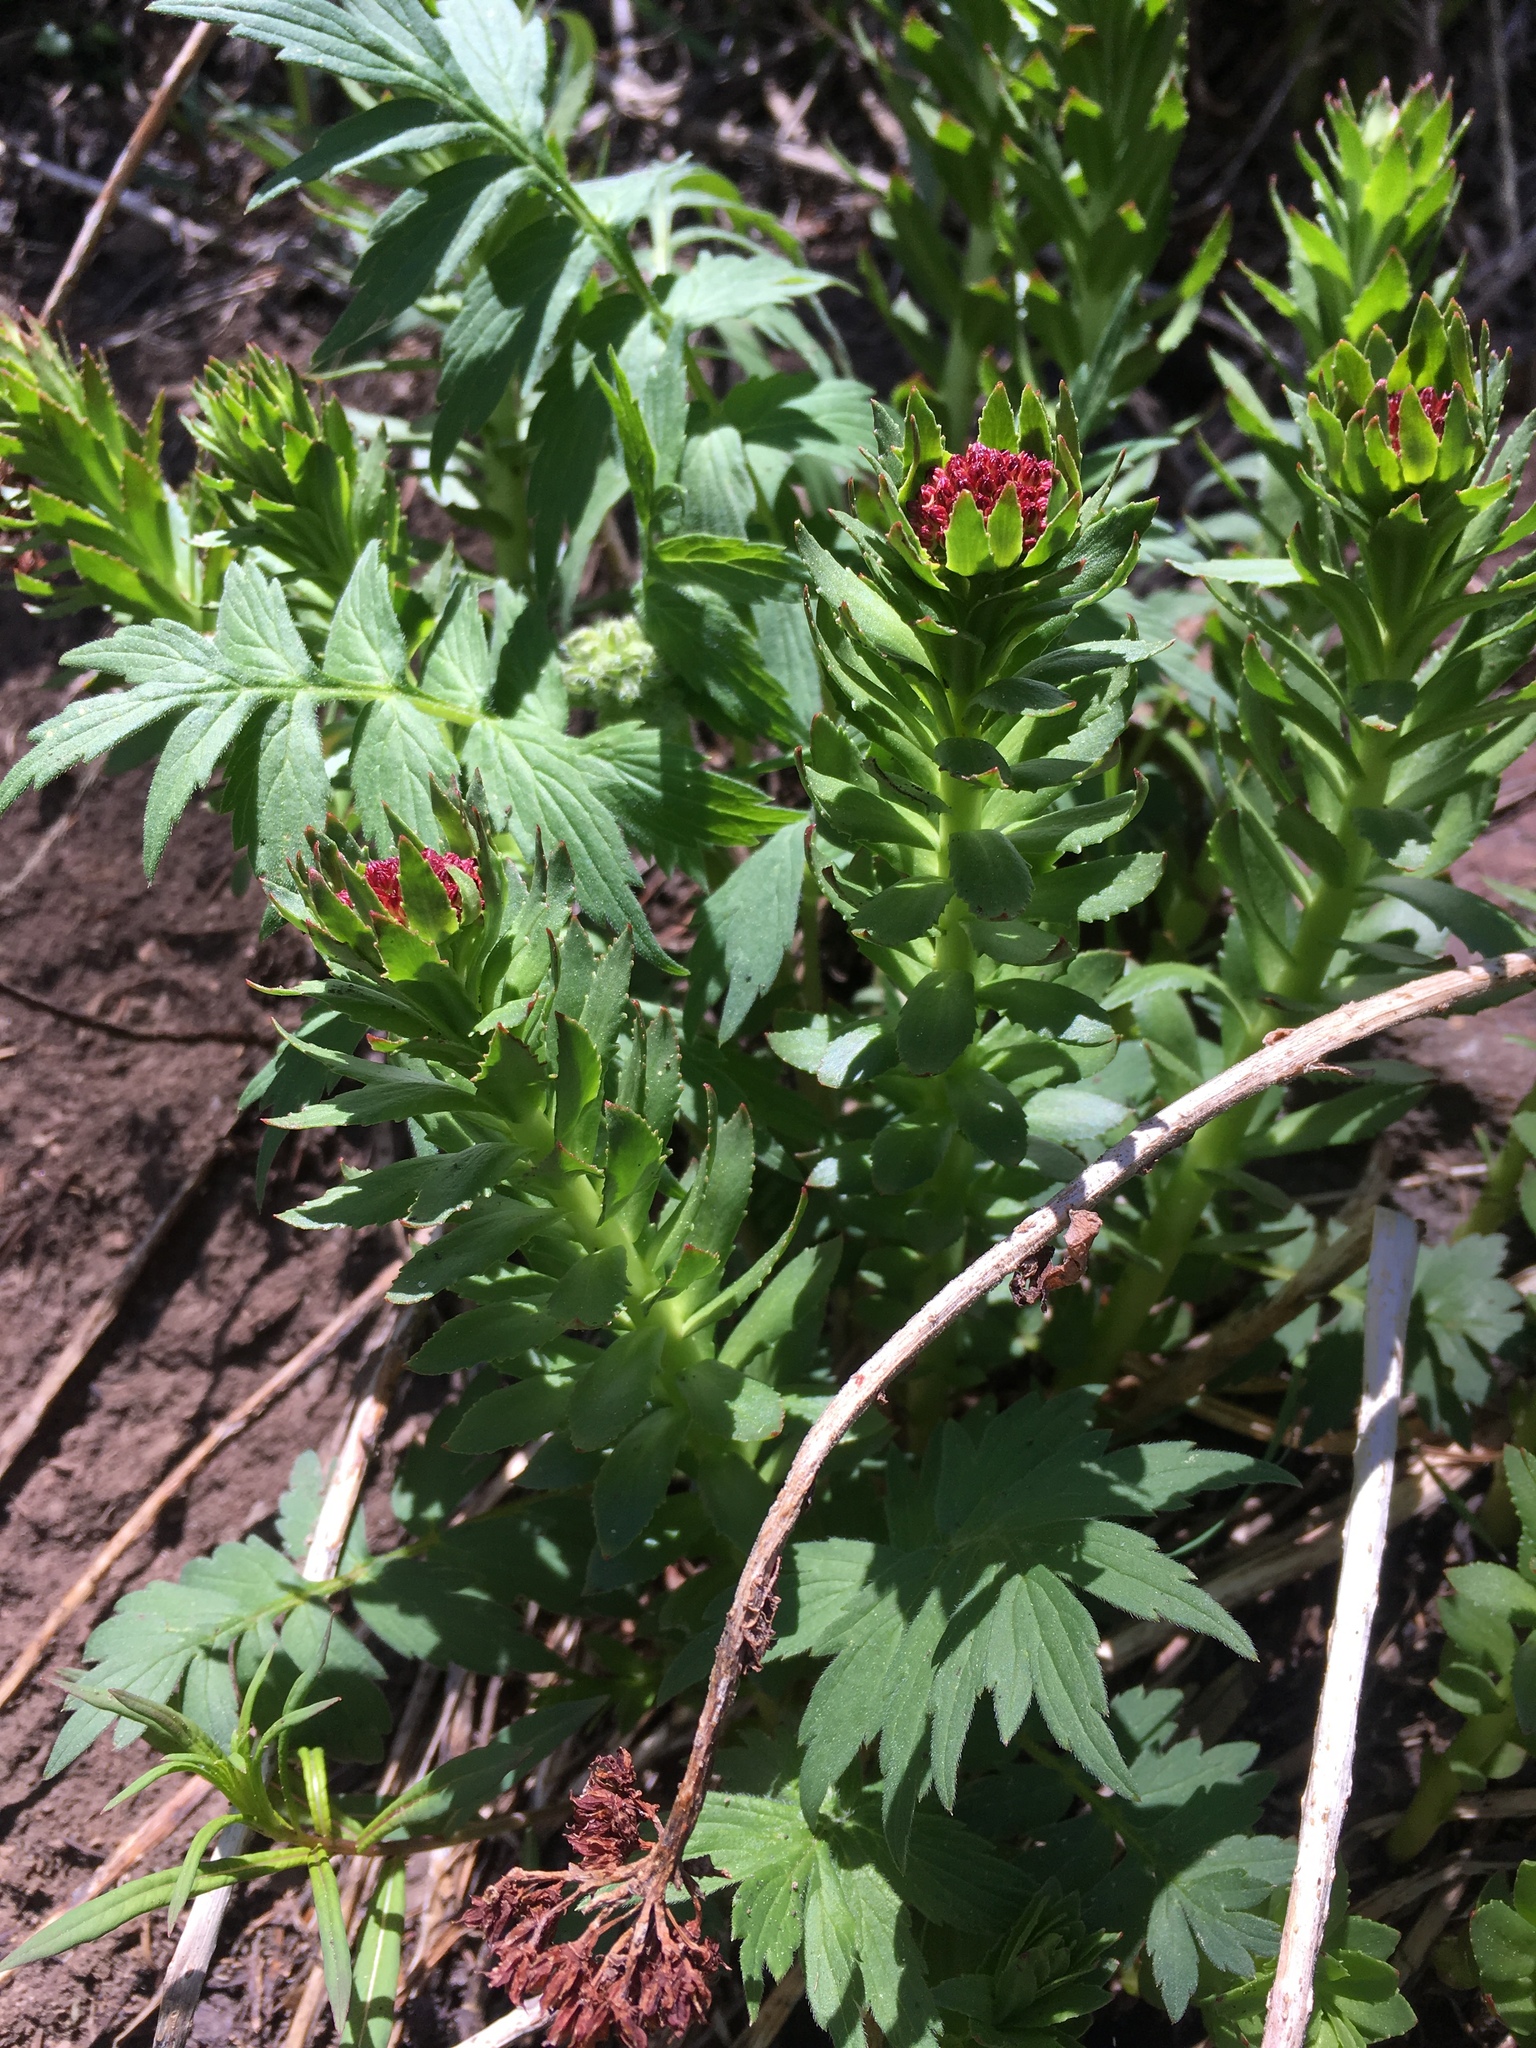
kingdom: Plantae
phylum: Tracheophyta
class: Magnoliopsida
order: Saxifragales
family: Crassulaceae
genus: Rhodiola
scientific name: Rhodiola integrifolia
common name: Western roseroot
